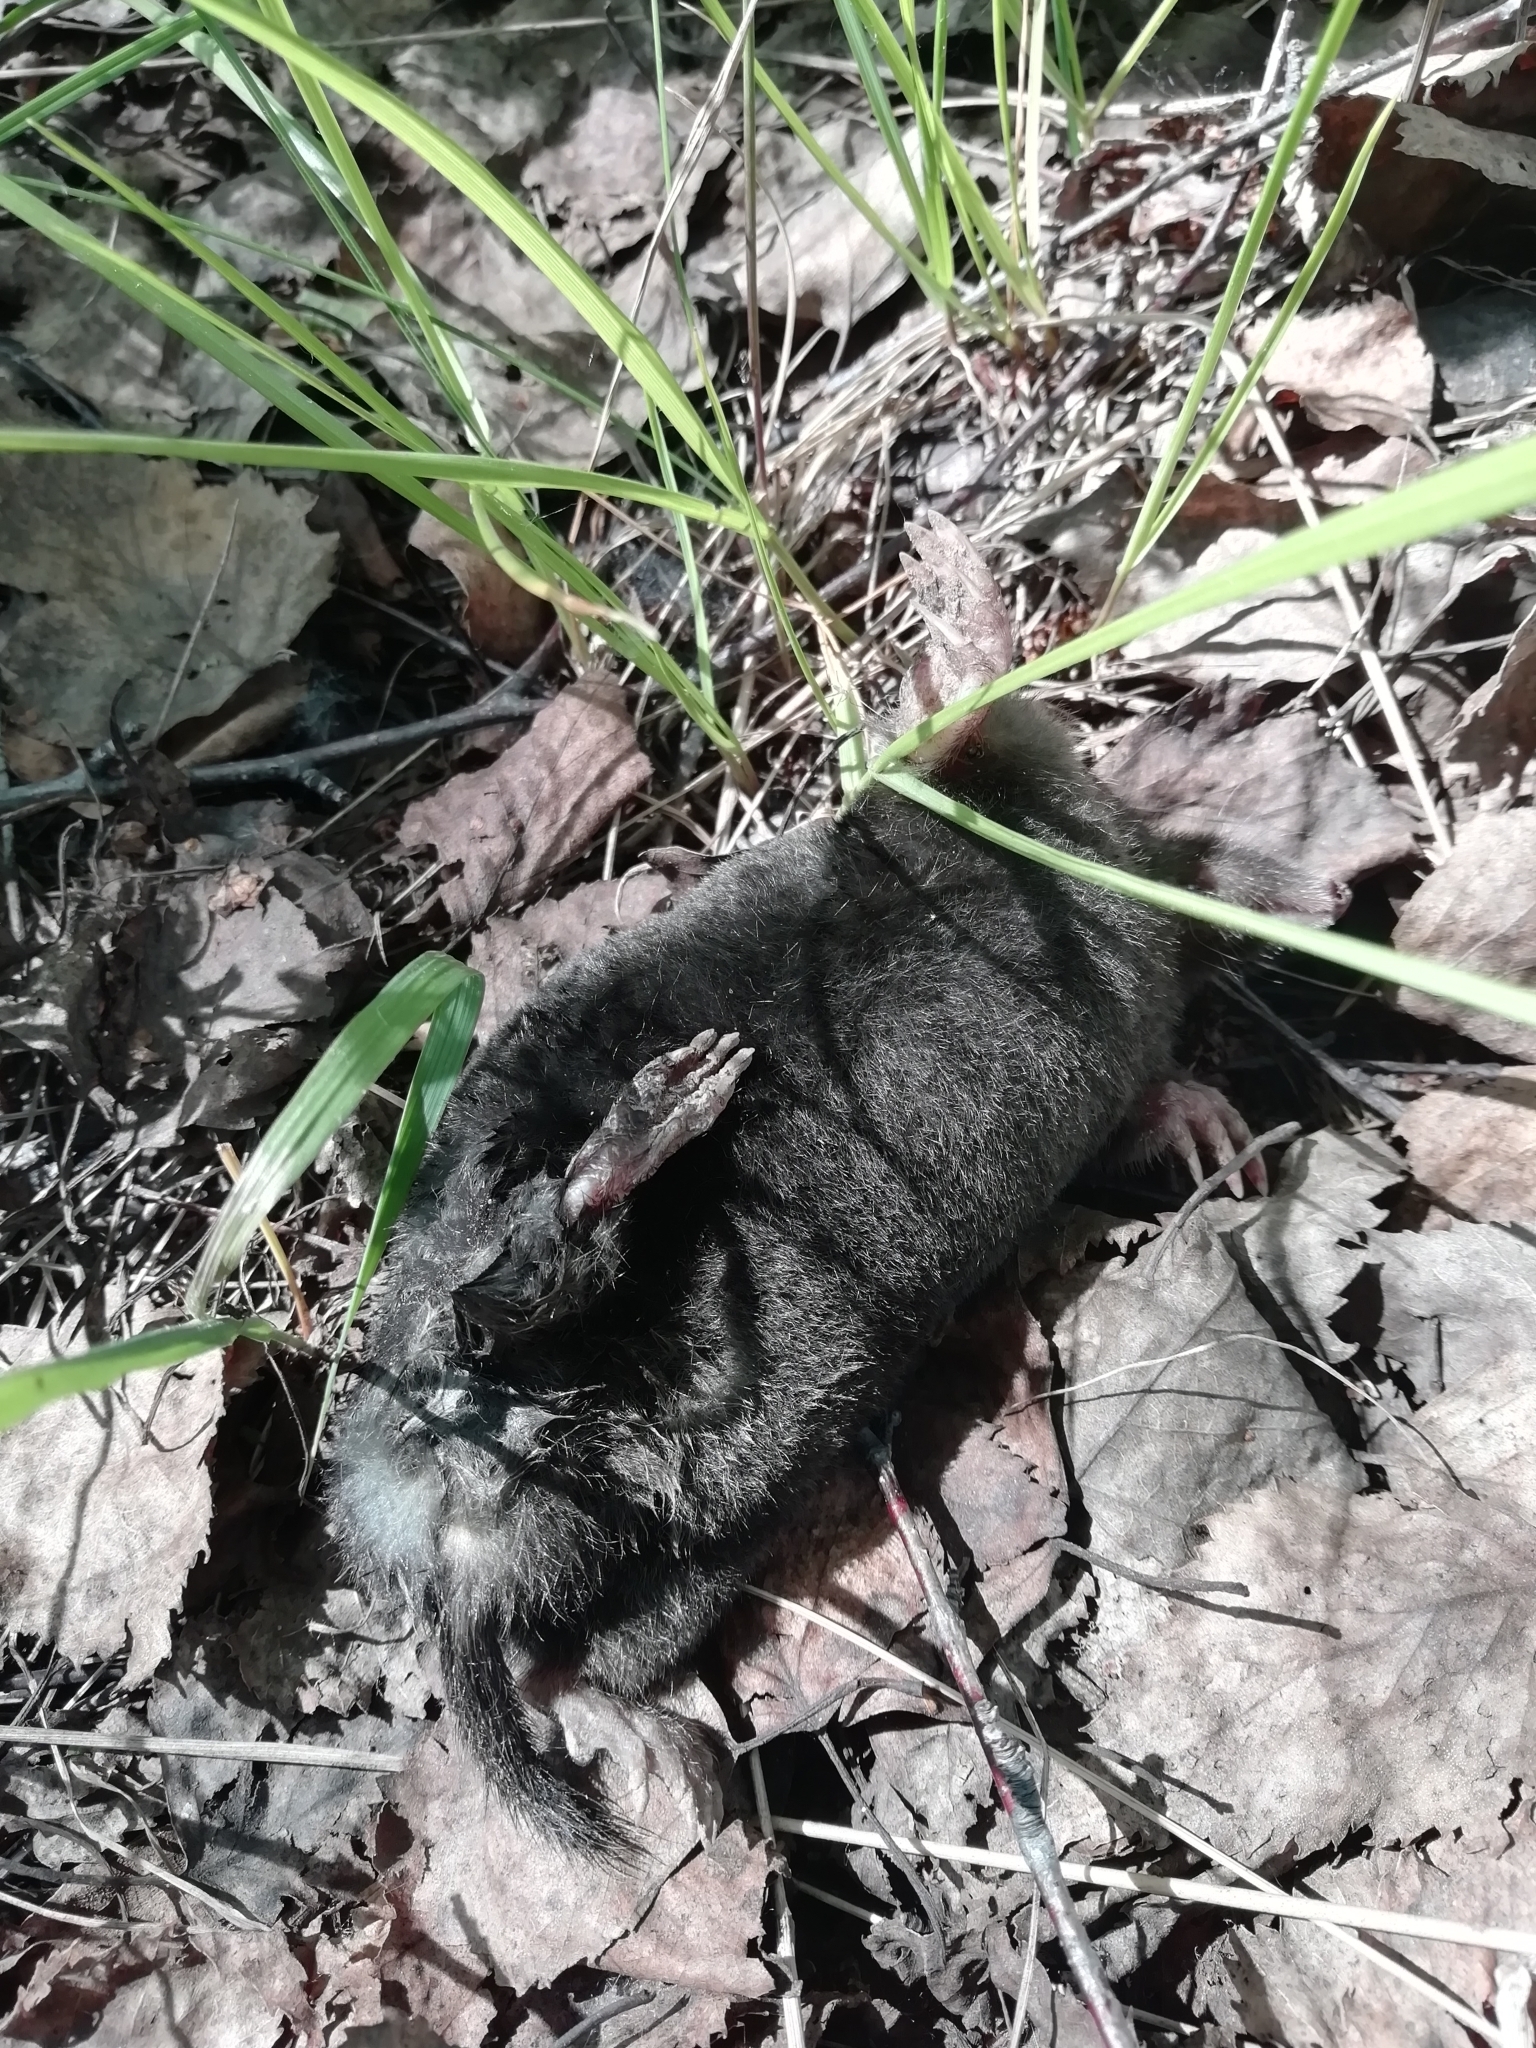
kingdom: Animalia
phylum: Chordata
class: Mammalia
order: Soricomorpha
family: Talpidae
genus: Talpa
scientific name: Talpa europaea
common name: European mole
